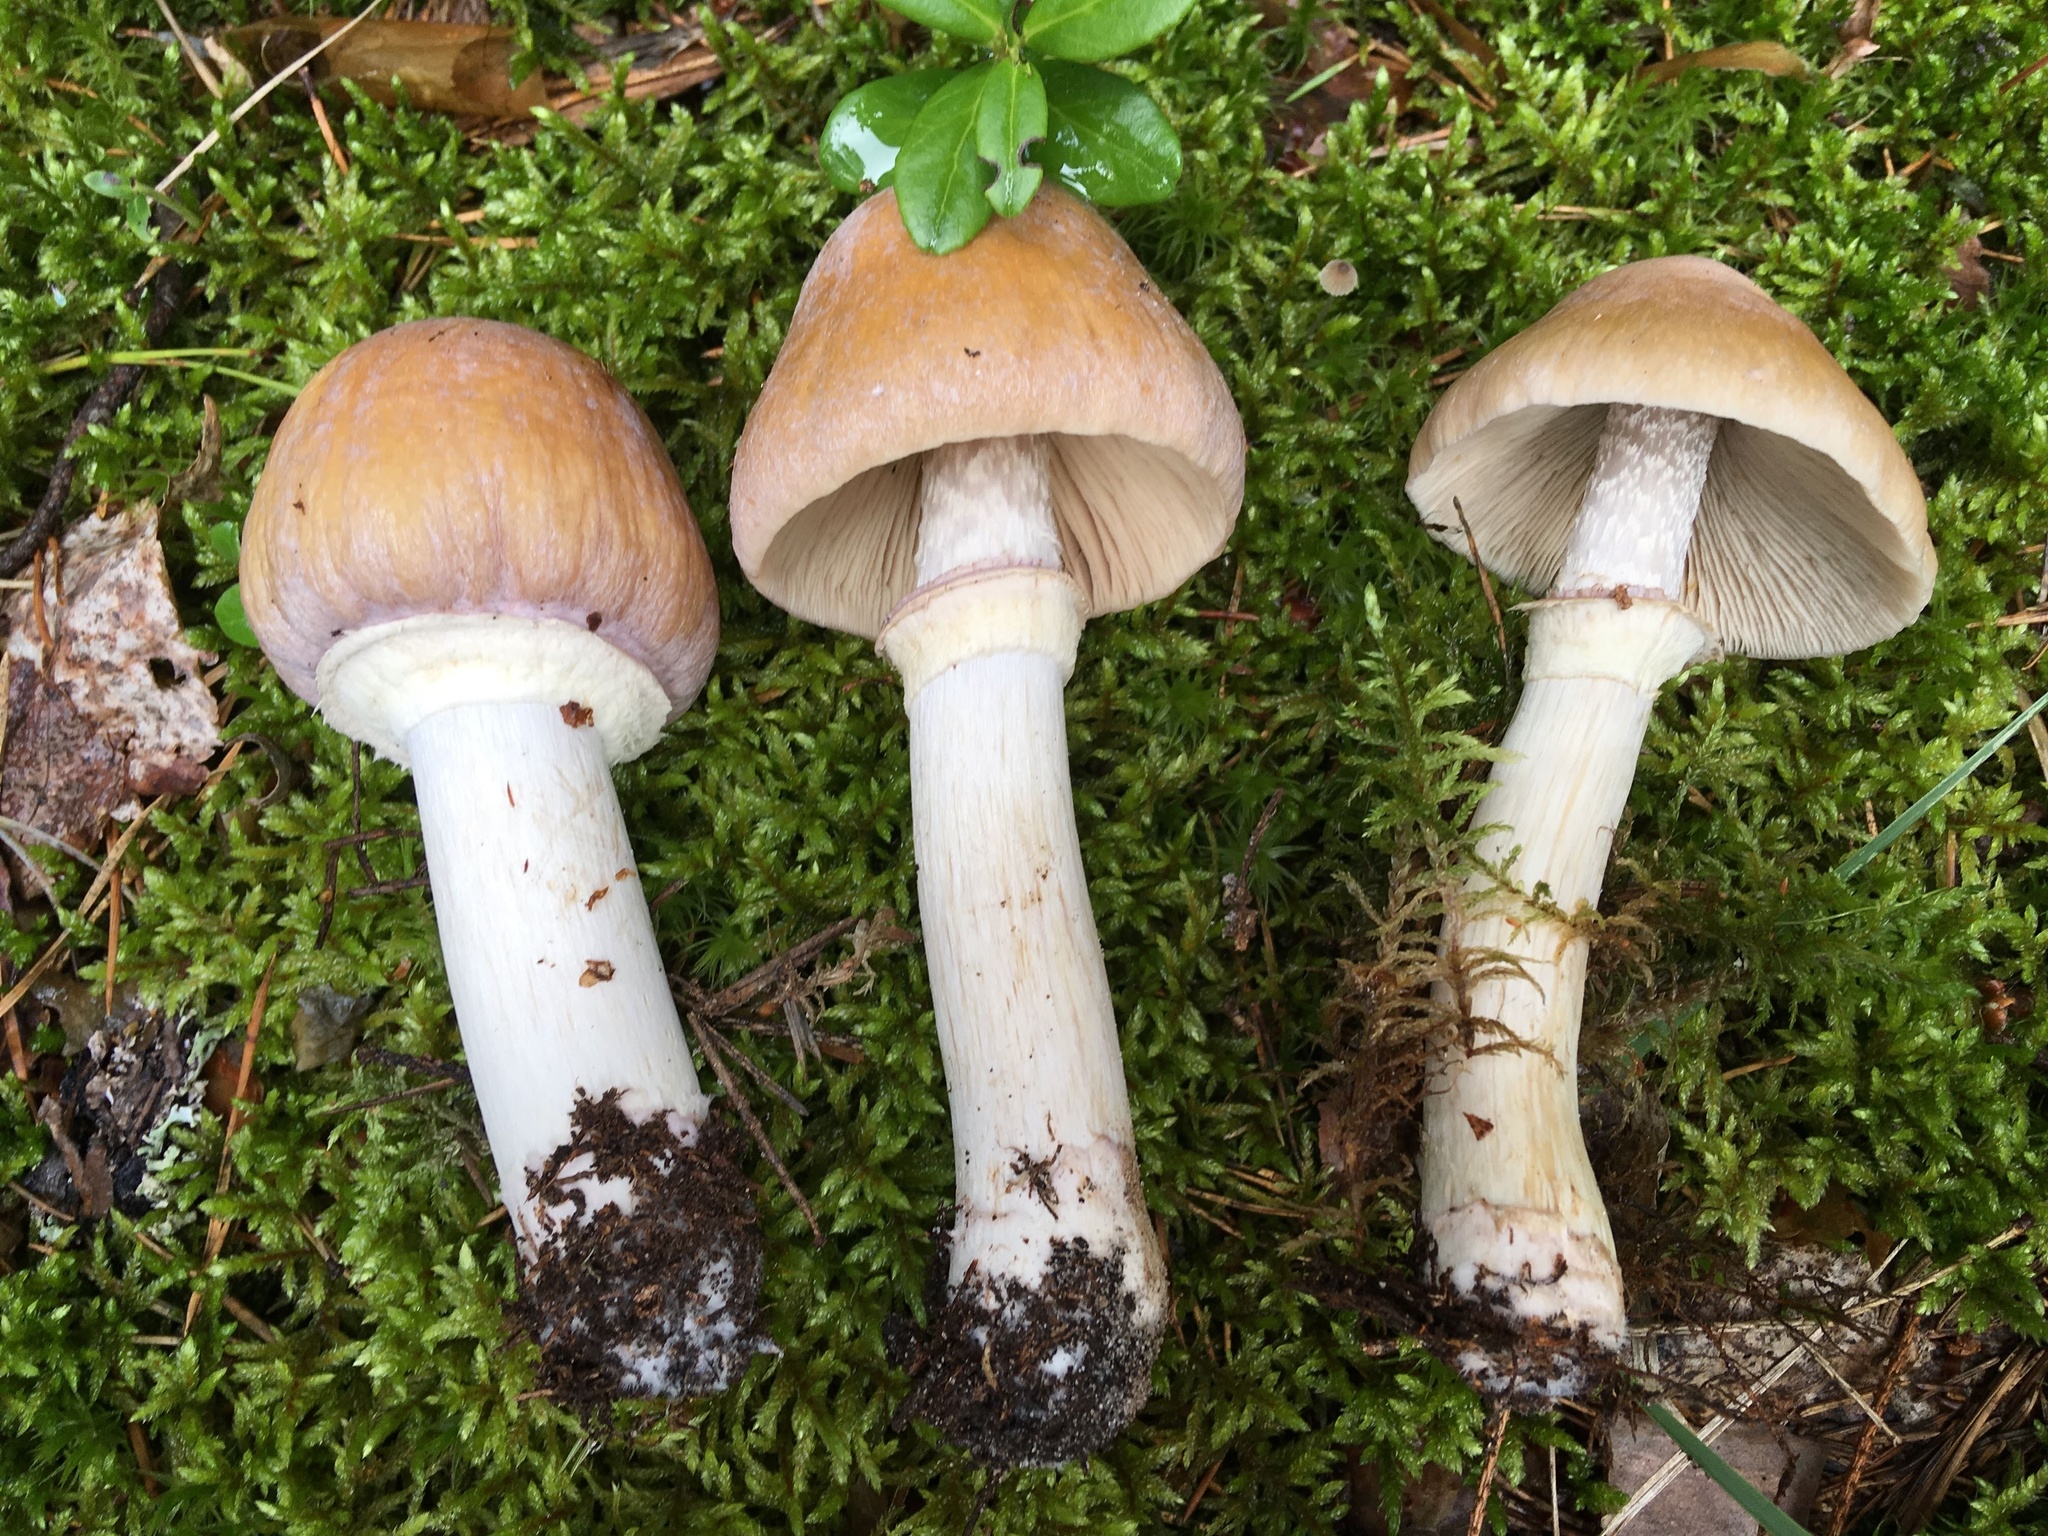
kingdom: Fungi
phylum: Basidiomycota
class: Agaricomycetes
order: Agaricales
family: Cortinariaceae
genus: Cortinarius
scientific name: Cortinarius caperatus
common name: The gypsy
